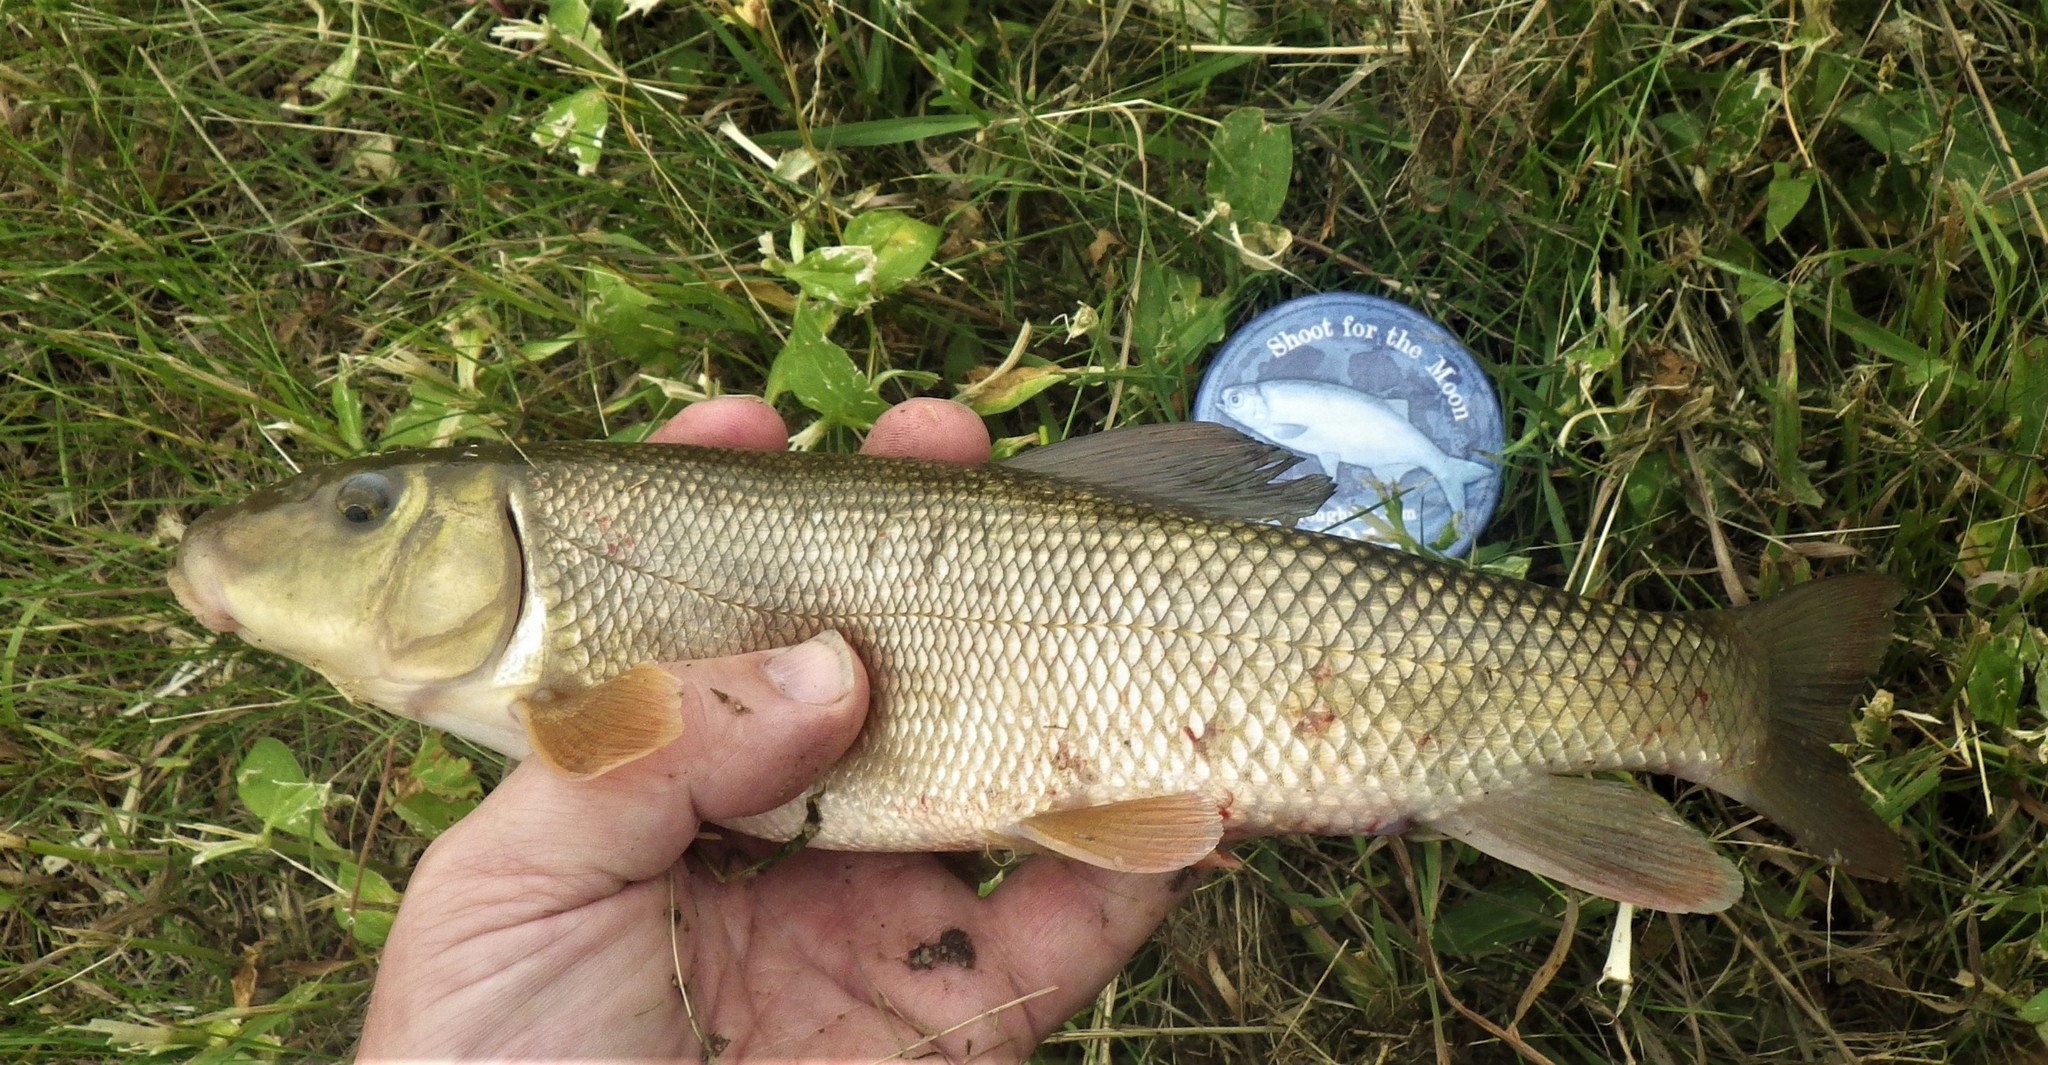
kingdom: Animalia
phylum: Chordata
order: Cypriniformes
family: Catostomidae
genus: Catostomus
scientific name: Catostomus commersonii
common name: White sucker
